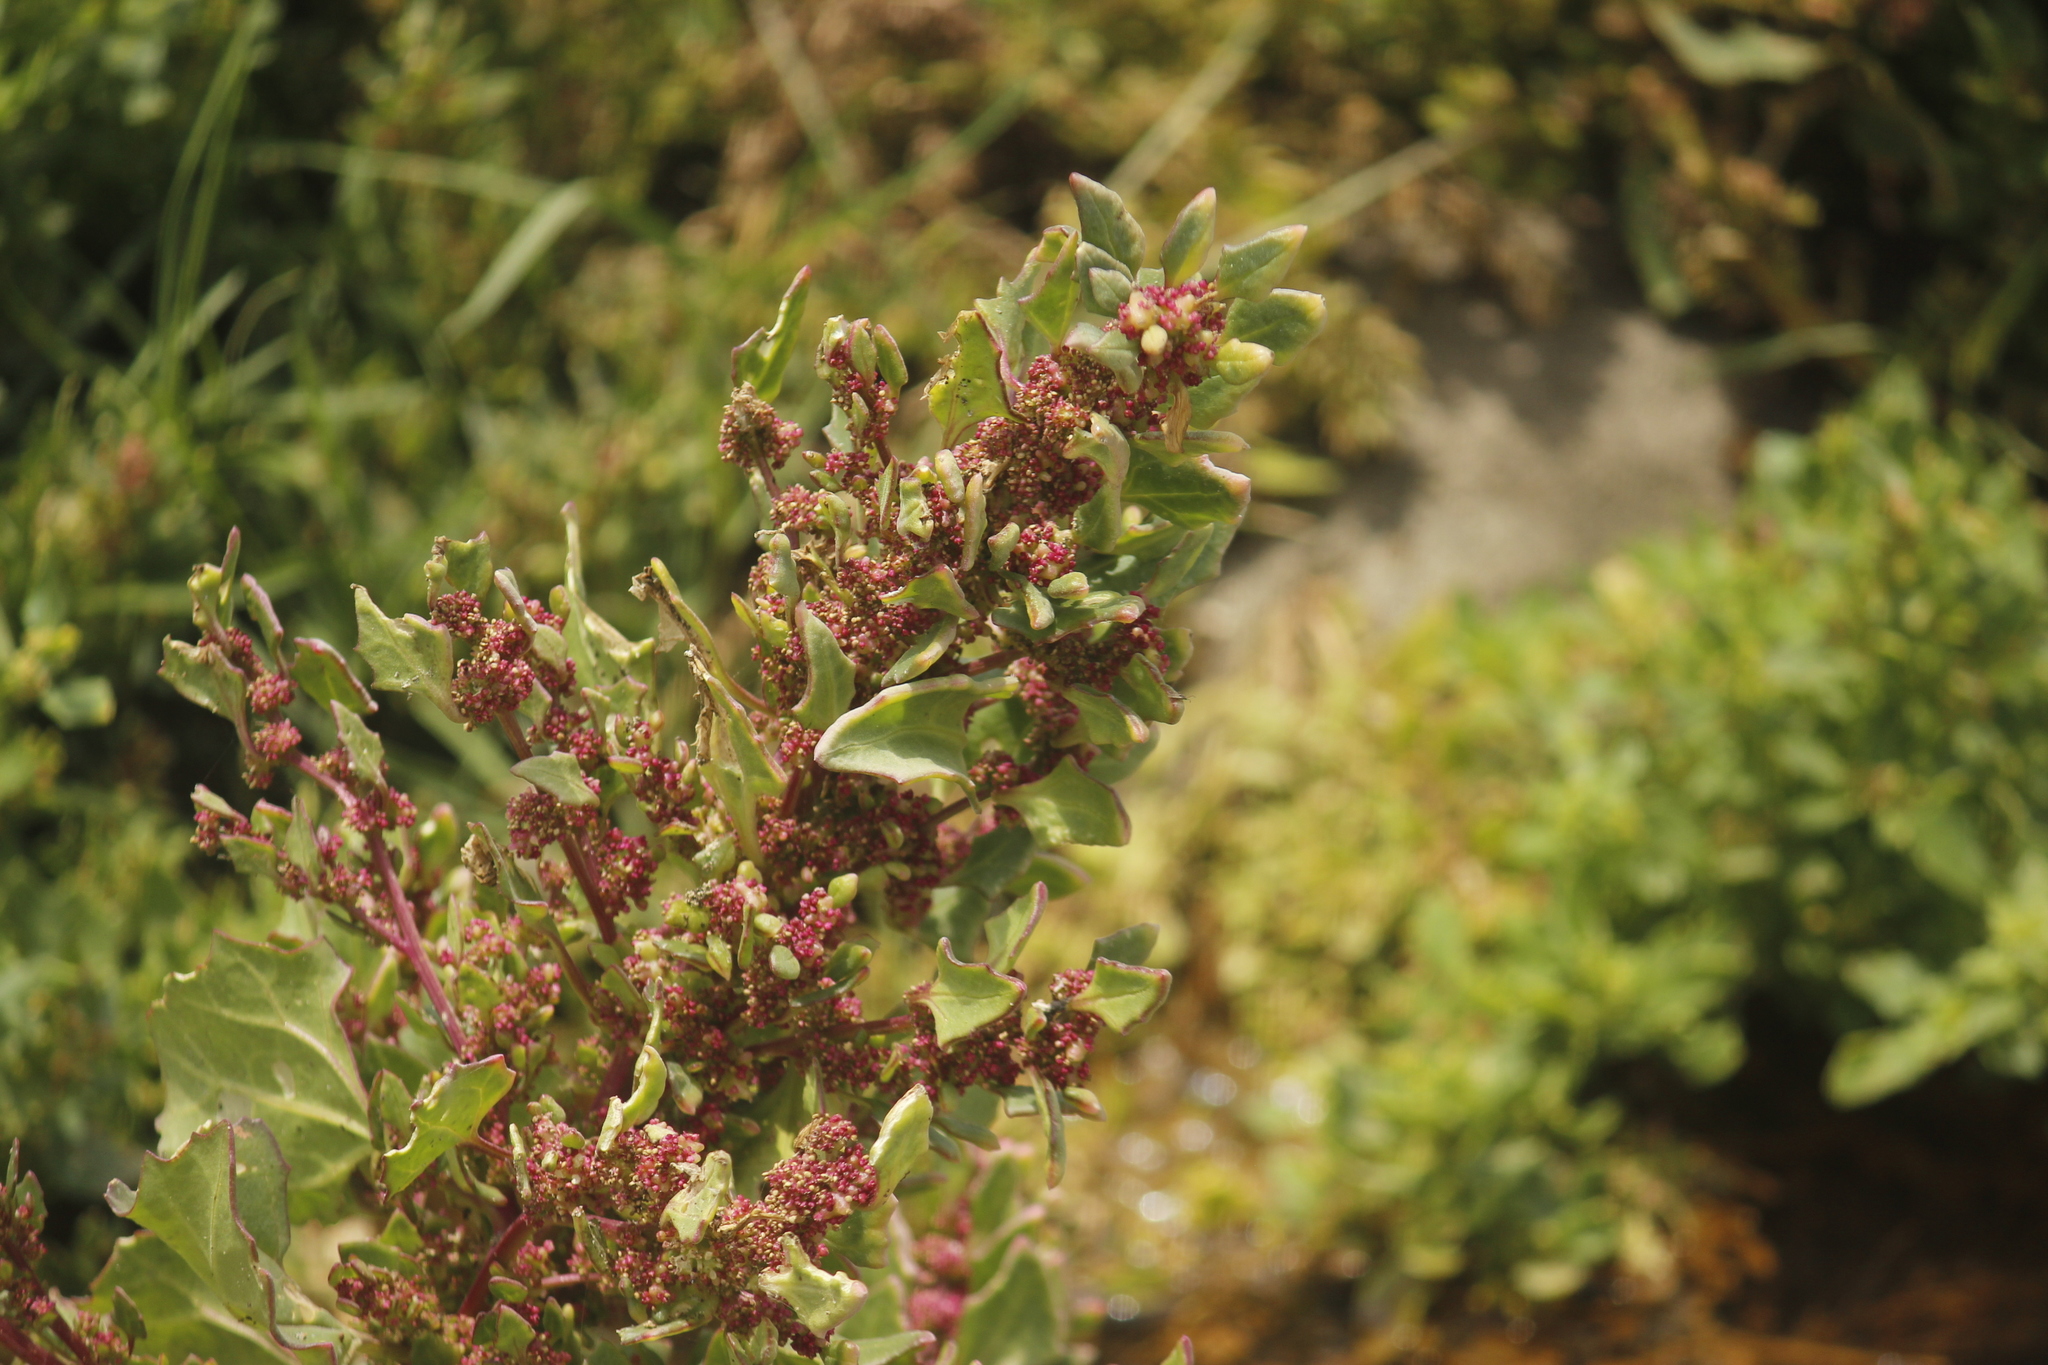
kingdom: Plantae
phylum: Tracheophyta
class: Magnoliopsida
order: Caryophyllales
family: Amaranthaceae
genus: Chenopodiastrum
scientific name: Chenopodiastrum murale
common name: Sowbane
